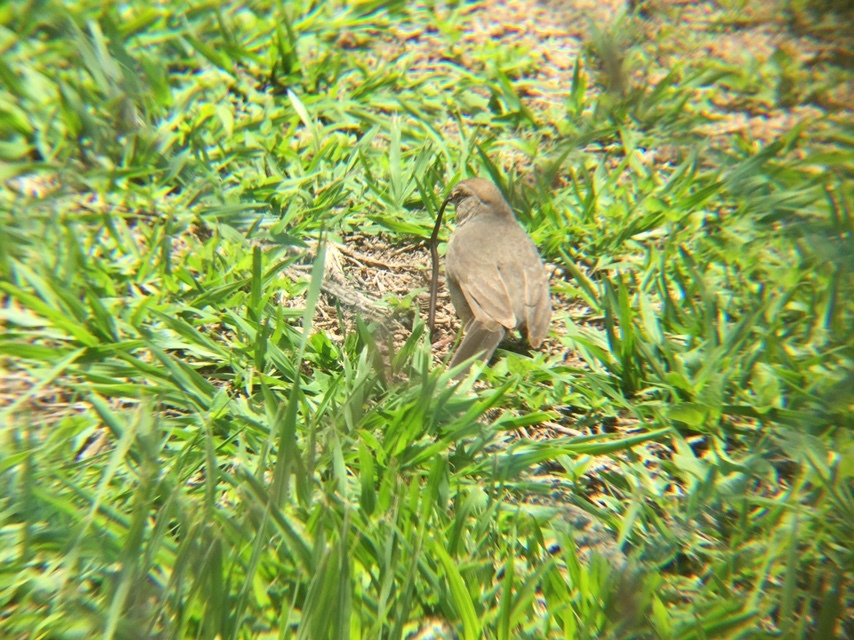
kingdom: Animalia
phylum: Chordata
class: Aves
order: Passeriformes
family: Passerellidae
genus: Melozone
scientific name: Melozone fusca
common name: Canyon towhee
